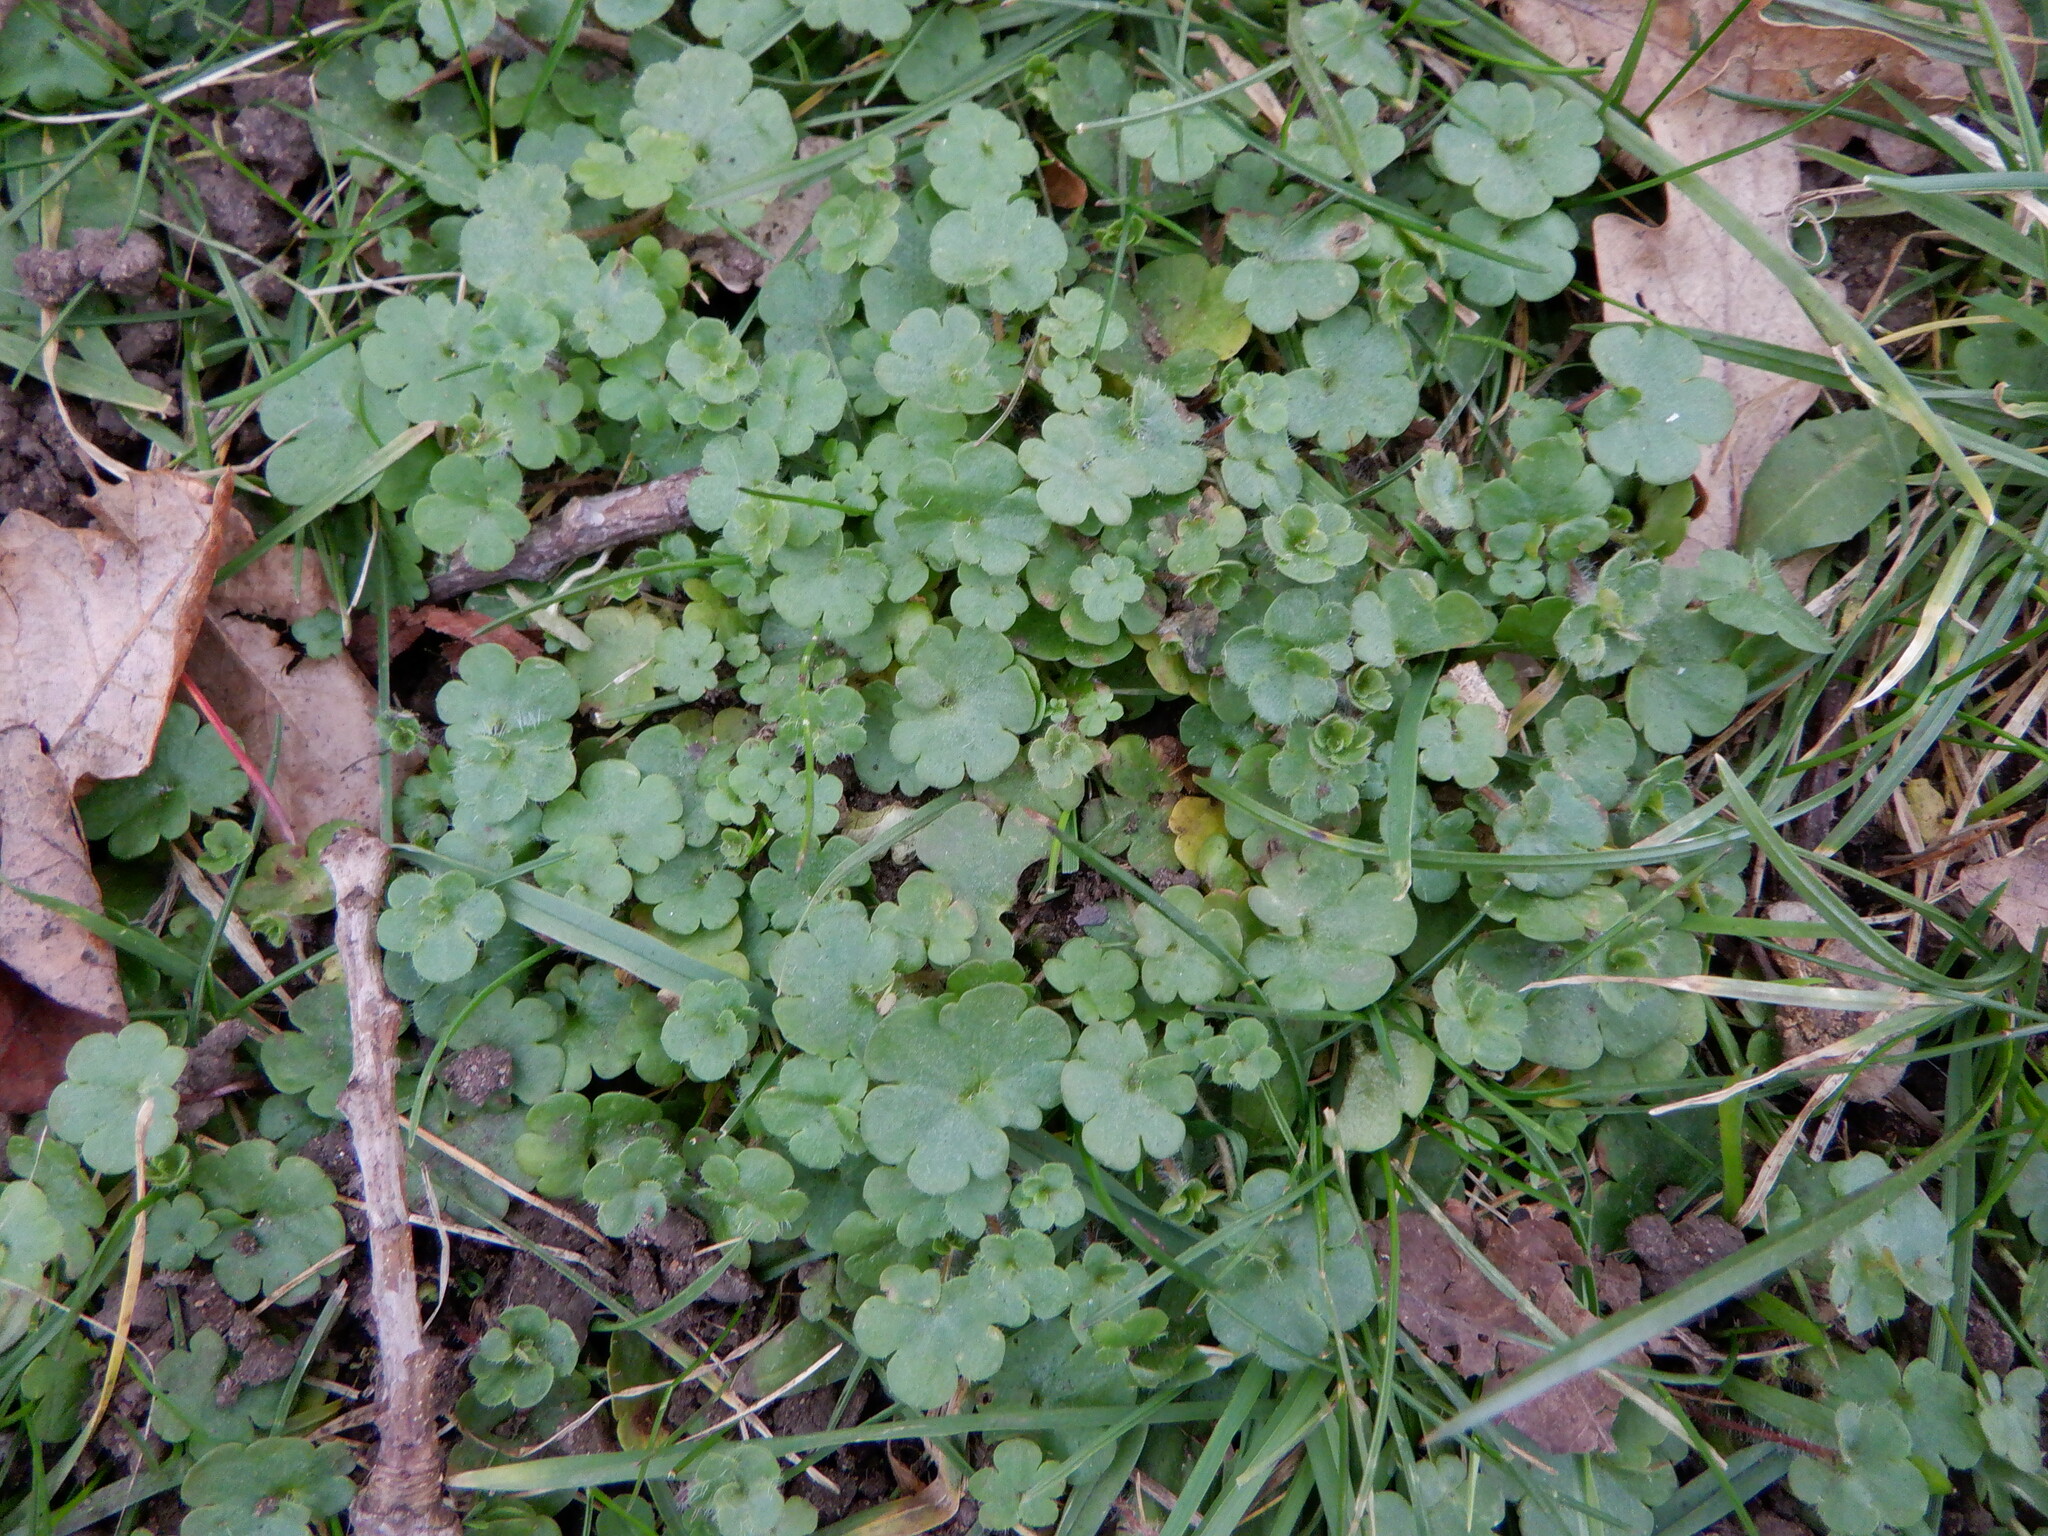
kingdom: Plantae
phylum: Tracheophyta
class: Magnoliopsida
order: Saxifragales
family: Saxifragaceae
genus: Saxifraga
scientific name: Saxifraga granulata
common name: Meadow saxifrage
